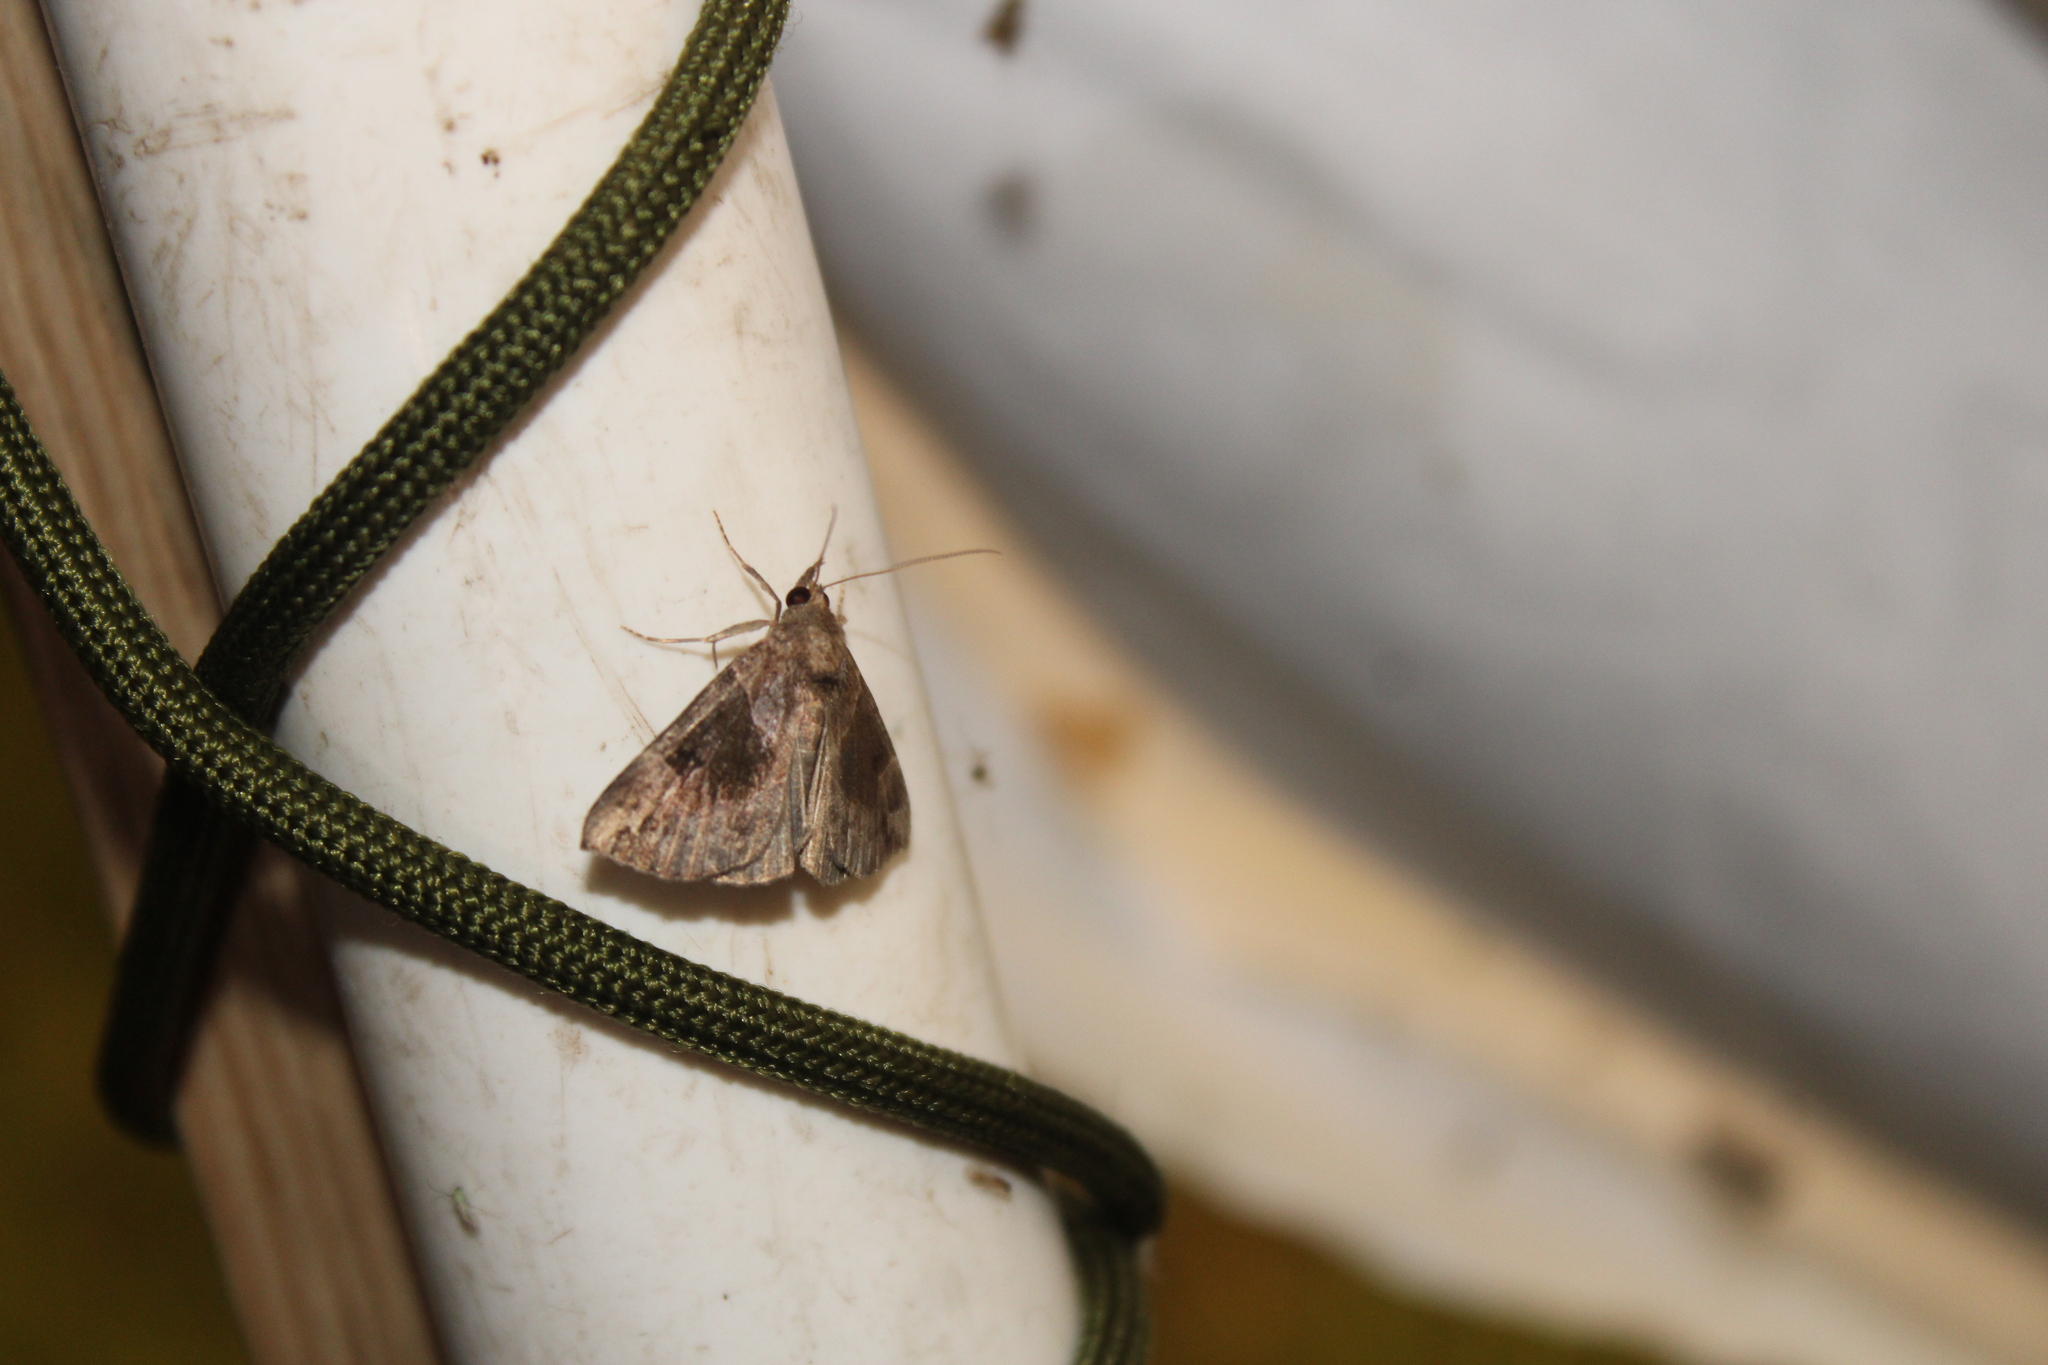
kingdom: Animalia
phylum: Arthropoda
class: Insecta
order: Lepidoptera
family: Erebidae
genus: Hypena
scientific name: Hypena manalis
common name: Flowing-line bomolocha moth
